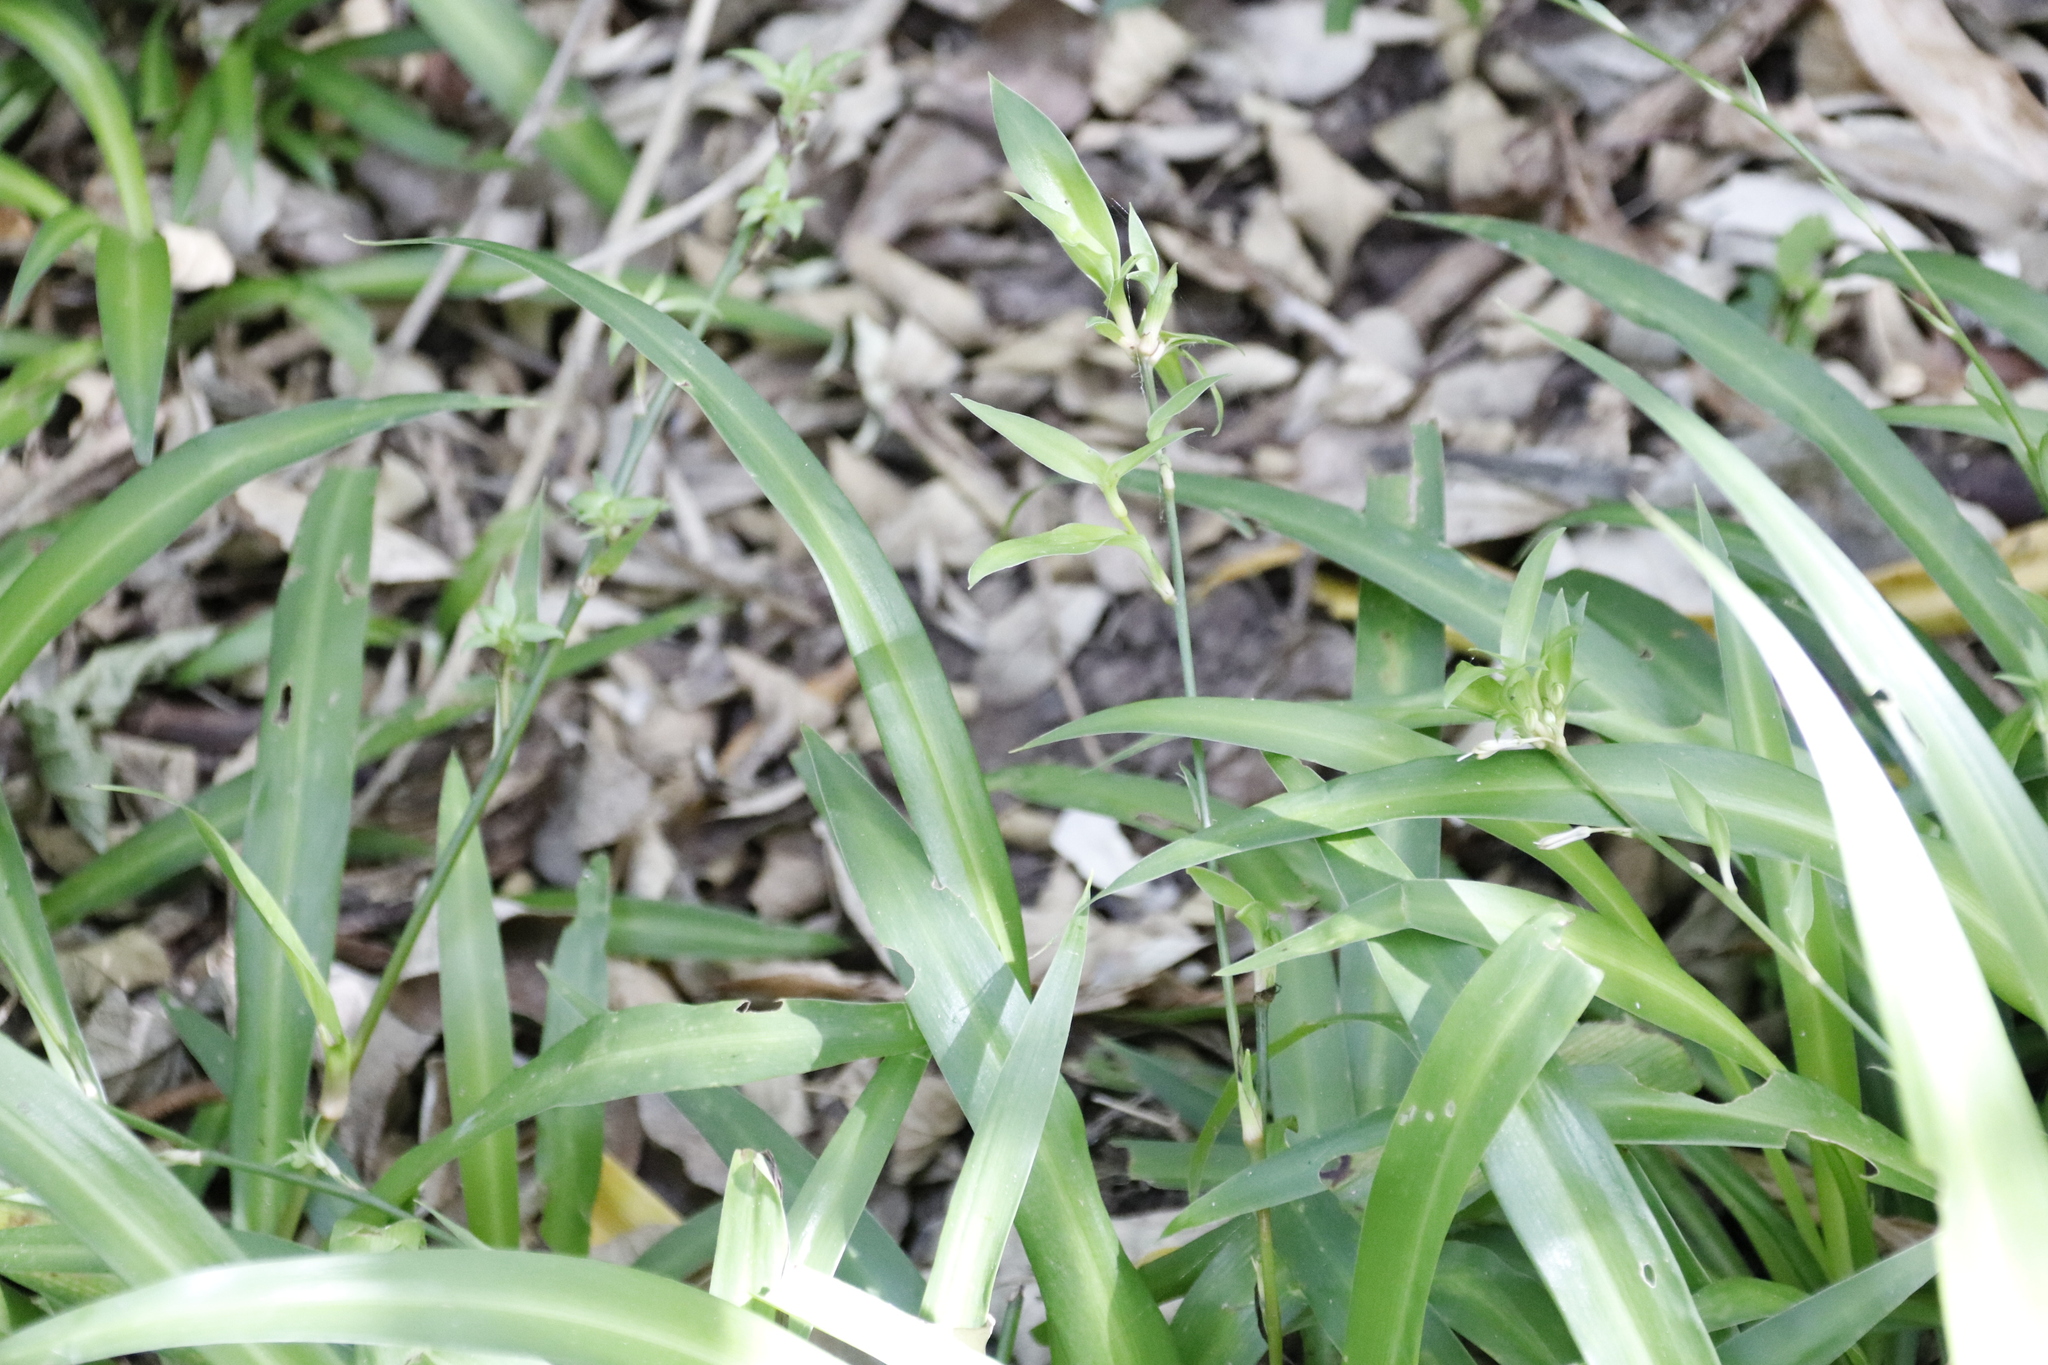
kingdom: Plantae
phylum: Tracheophyta
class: Liliopsida
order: Asparagales
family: Asparagaceae
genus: Chlorophytum
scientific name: Chlorophytum comosum
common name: Spider plant
